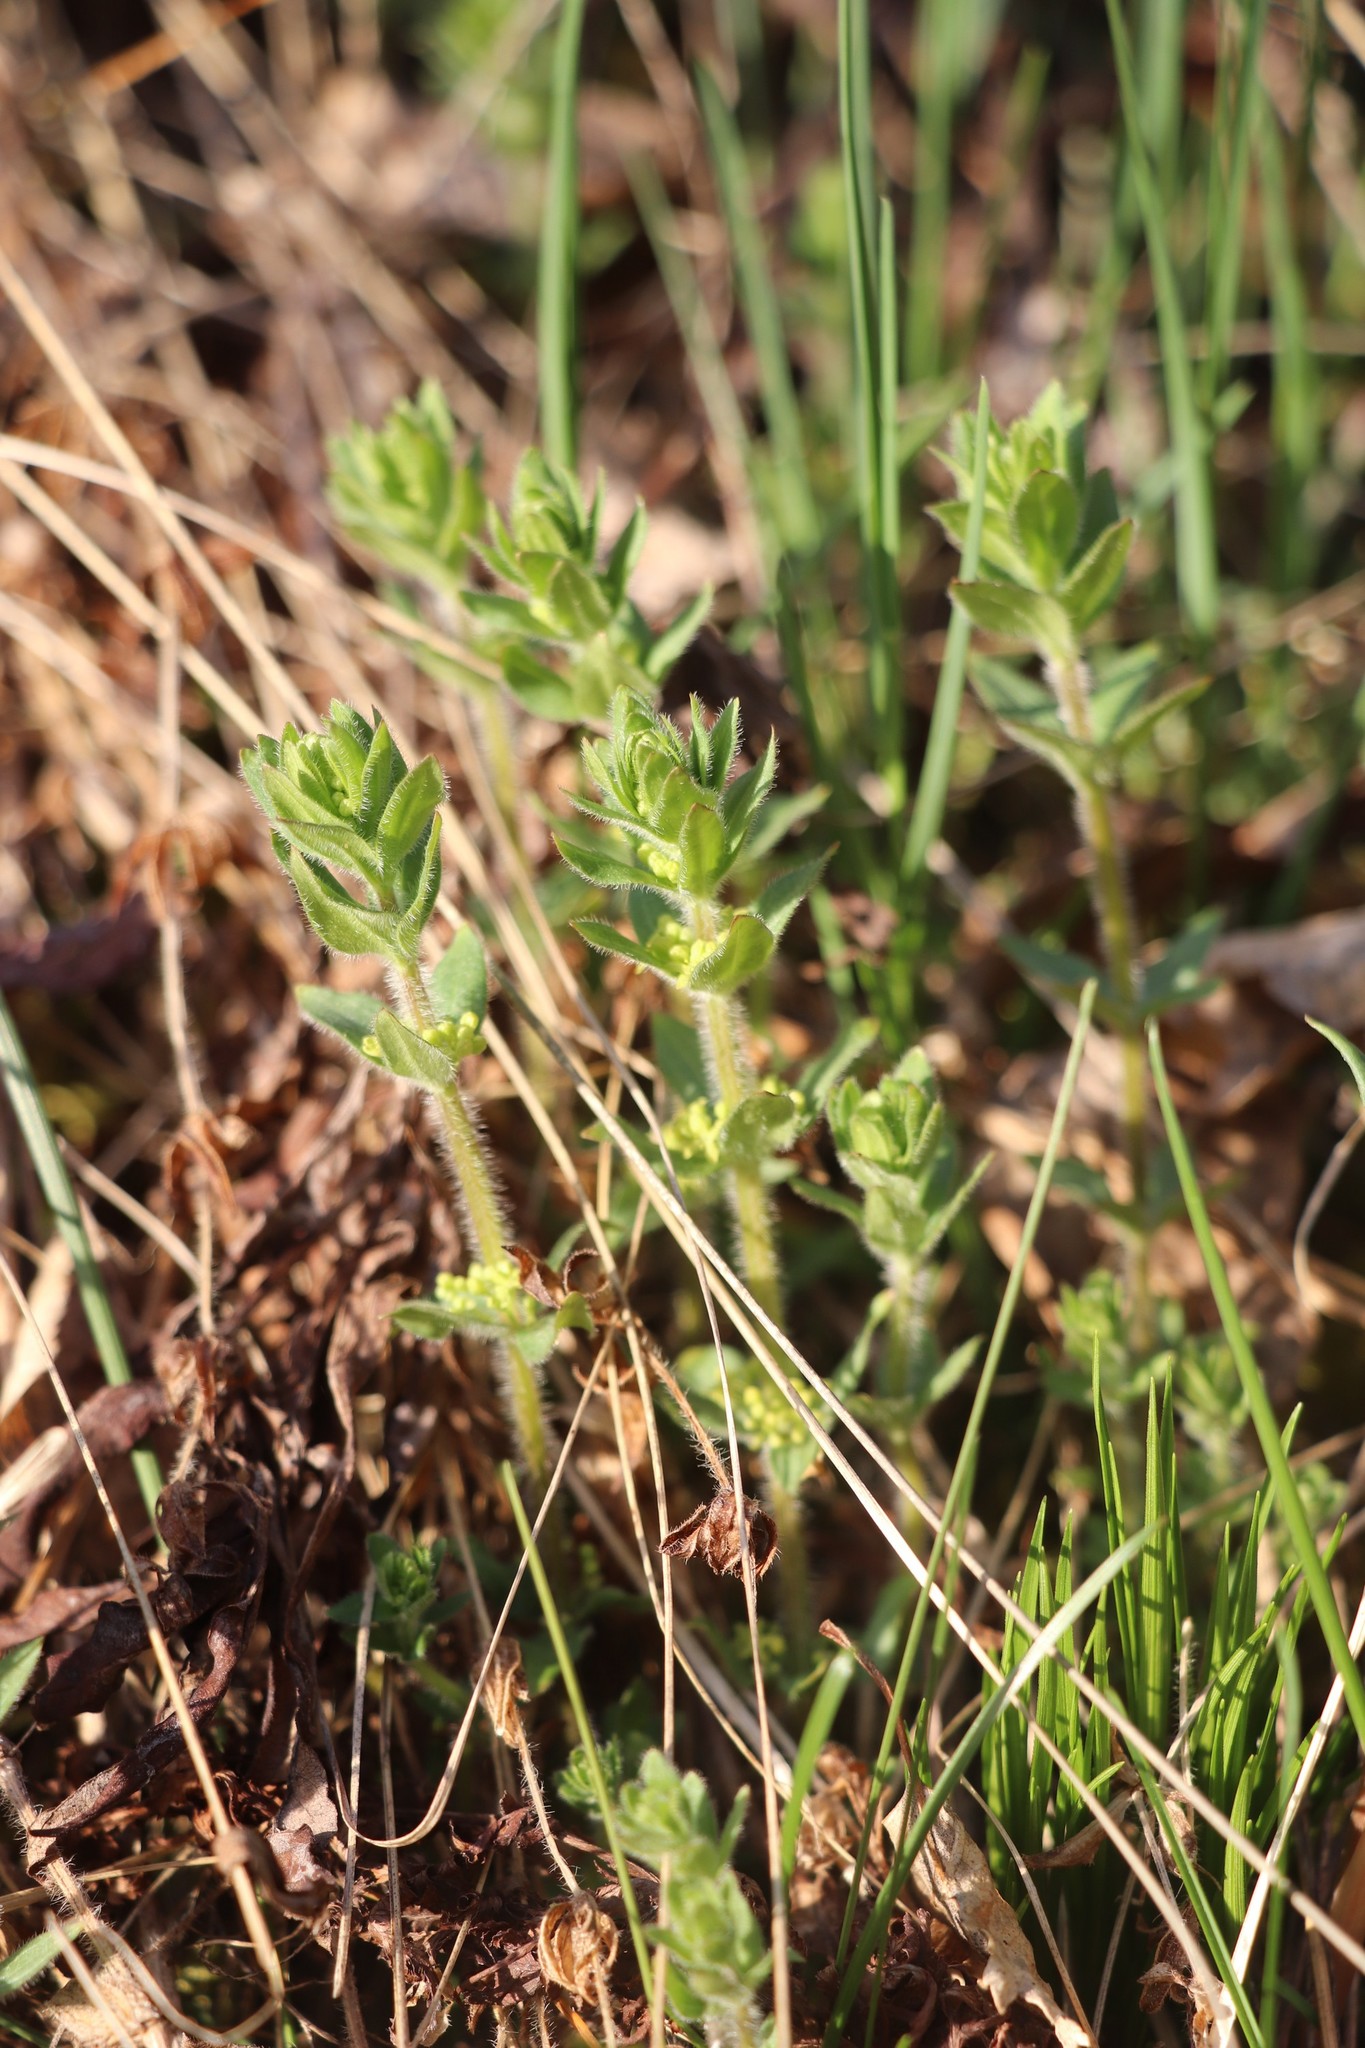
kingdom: Plantae
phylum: Tracheophyta
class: Magnoliopsida
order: Gentianales
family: Rubiaceae
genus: Cruciata
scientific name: Cruciata glabra
